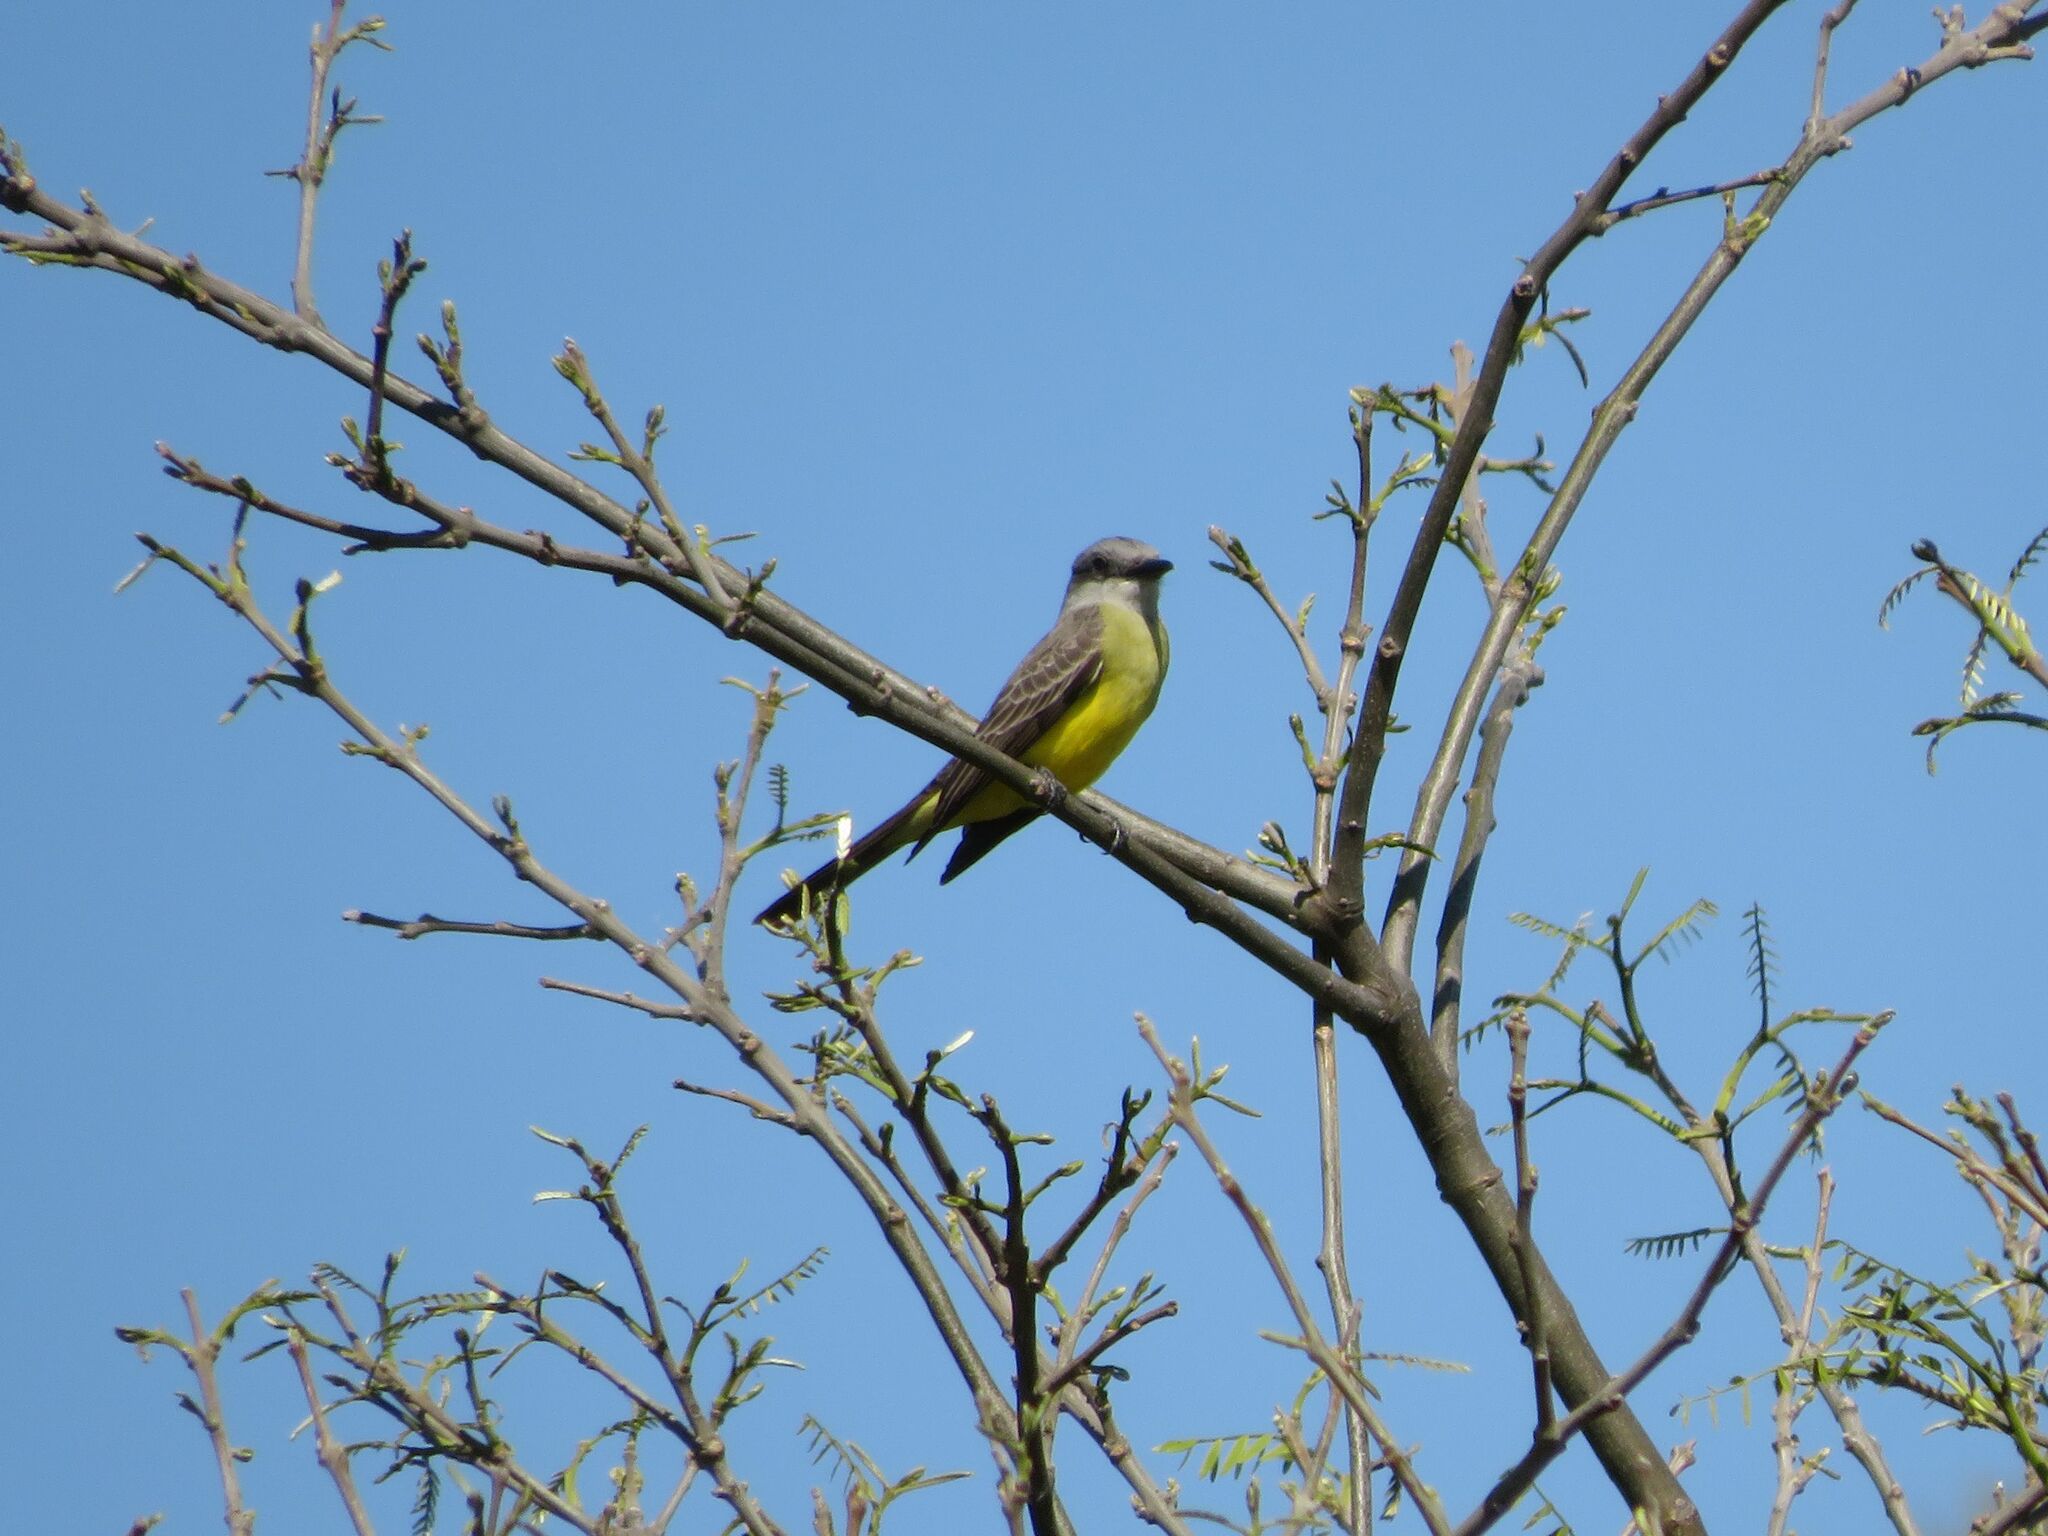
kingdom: Animalia
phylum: Chordata
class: Aves
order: Passeriformes
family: Tyrannidae
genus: Tyrannus
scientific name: Tyrannus melancholicus
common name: Tropical kingbird
